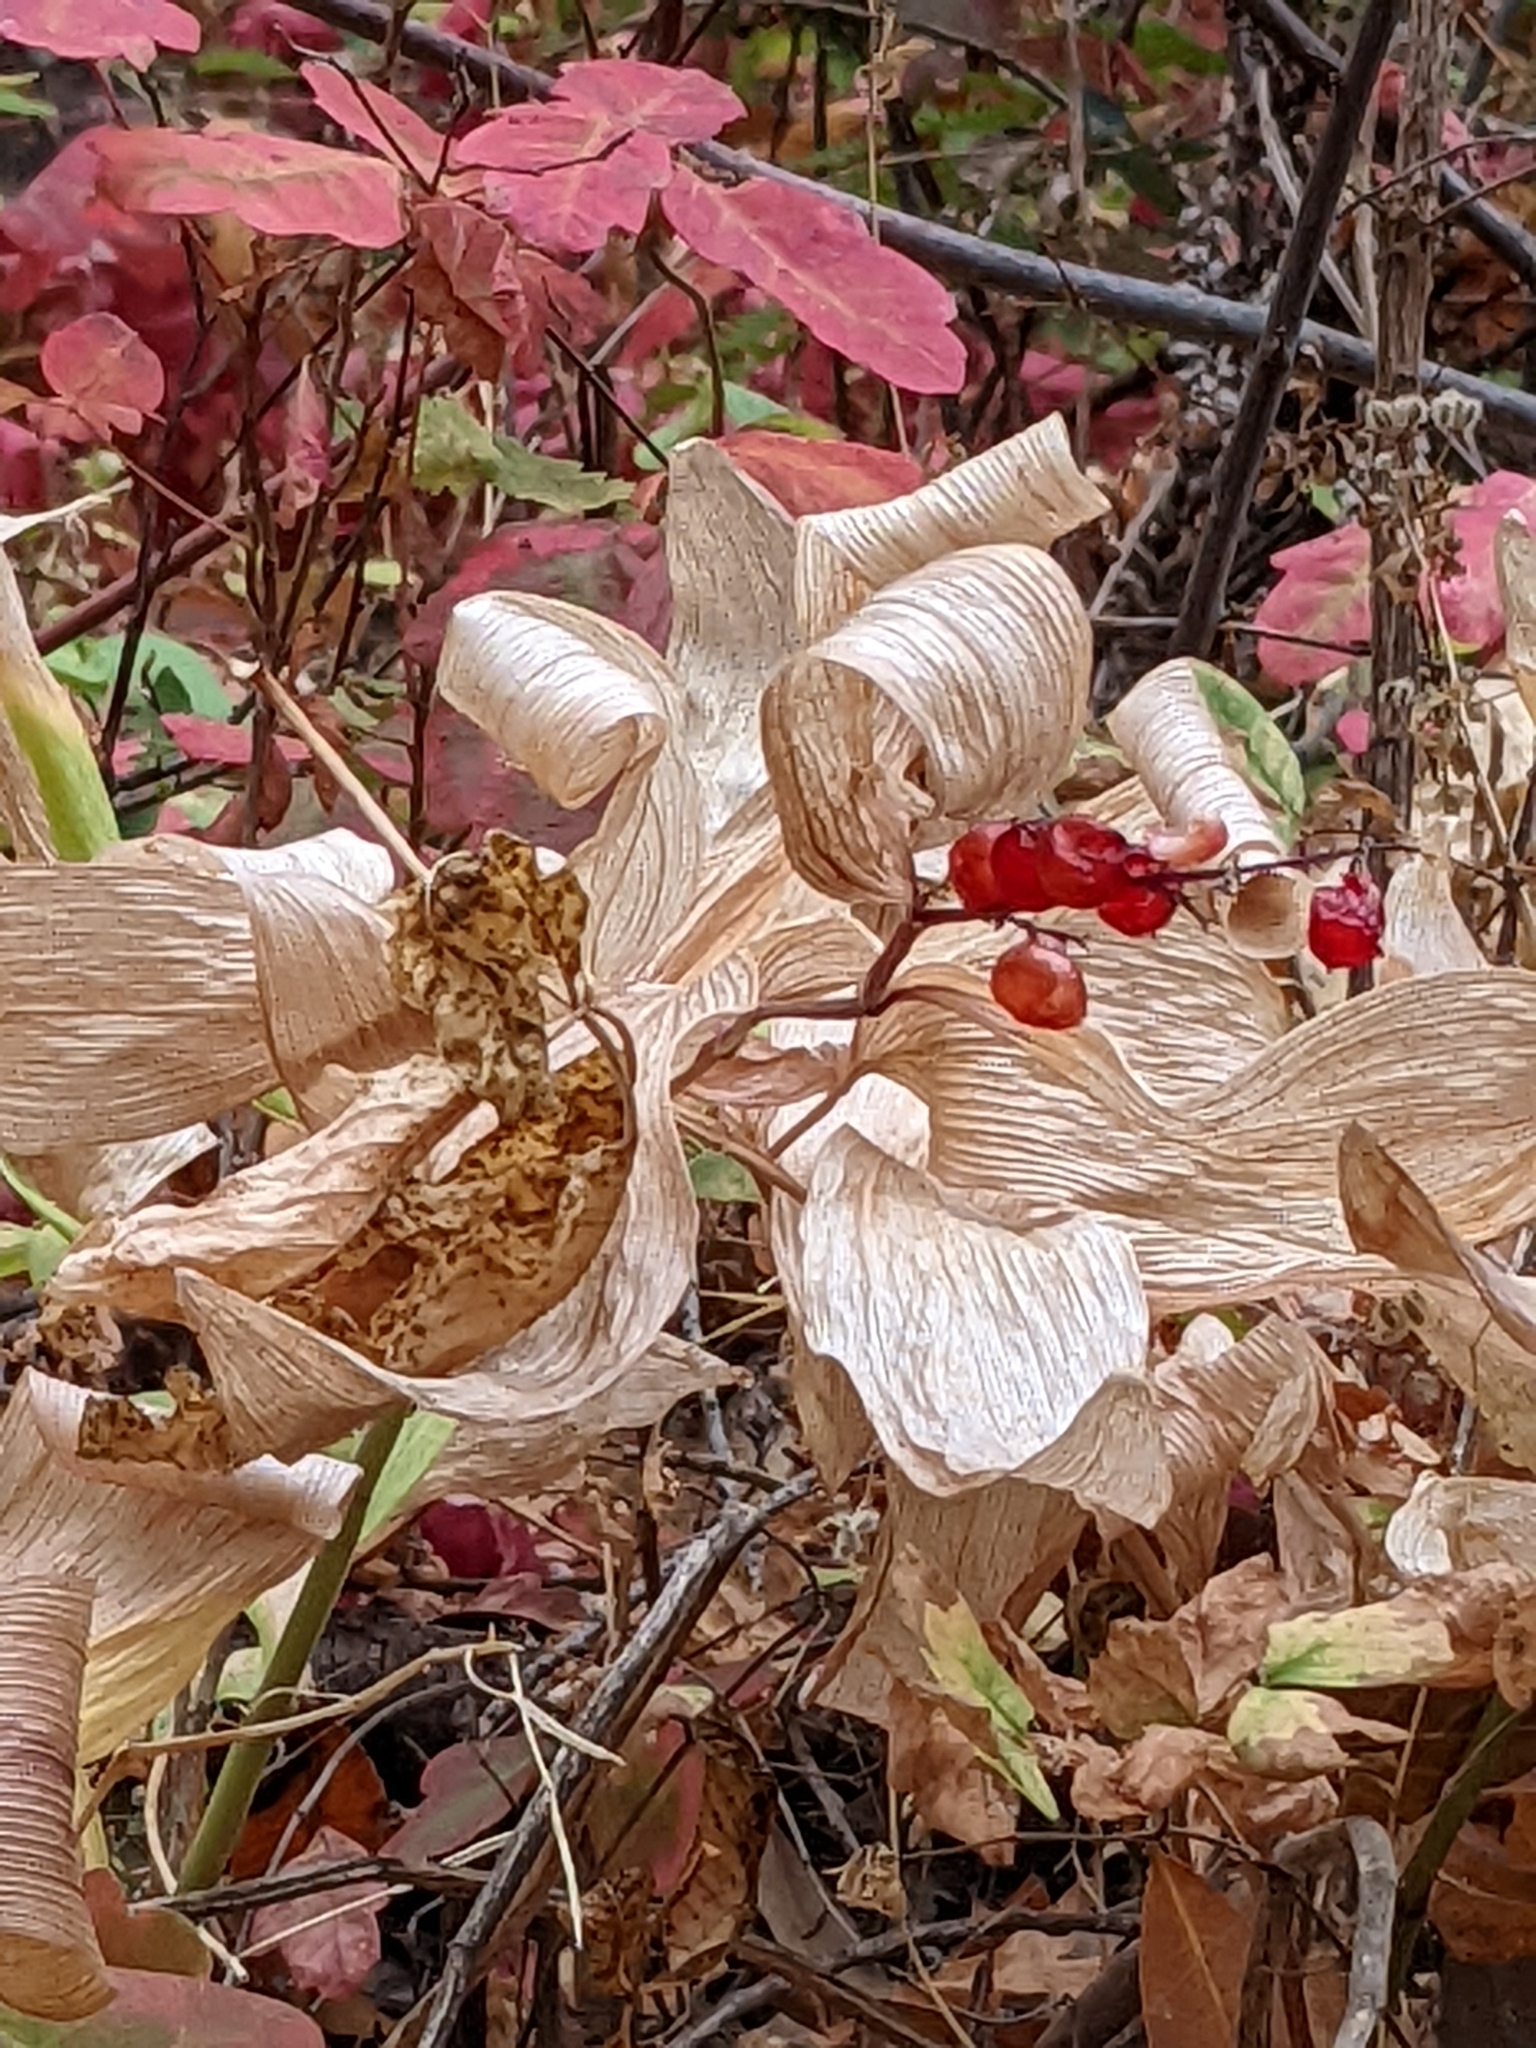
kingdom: Plantae
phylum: Tracheophyta
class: Liliopsida
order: Asparagales
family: Asparagaceae
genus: Maianthemum
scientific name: Maianthemum racemosum
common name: False spikenard
